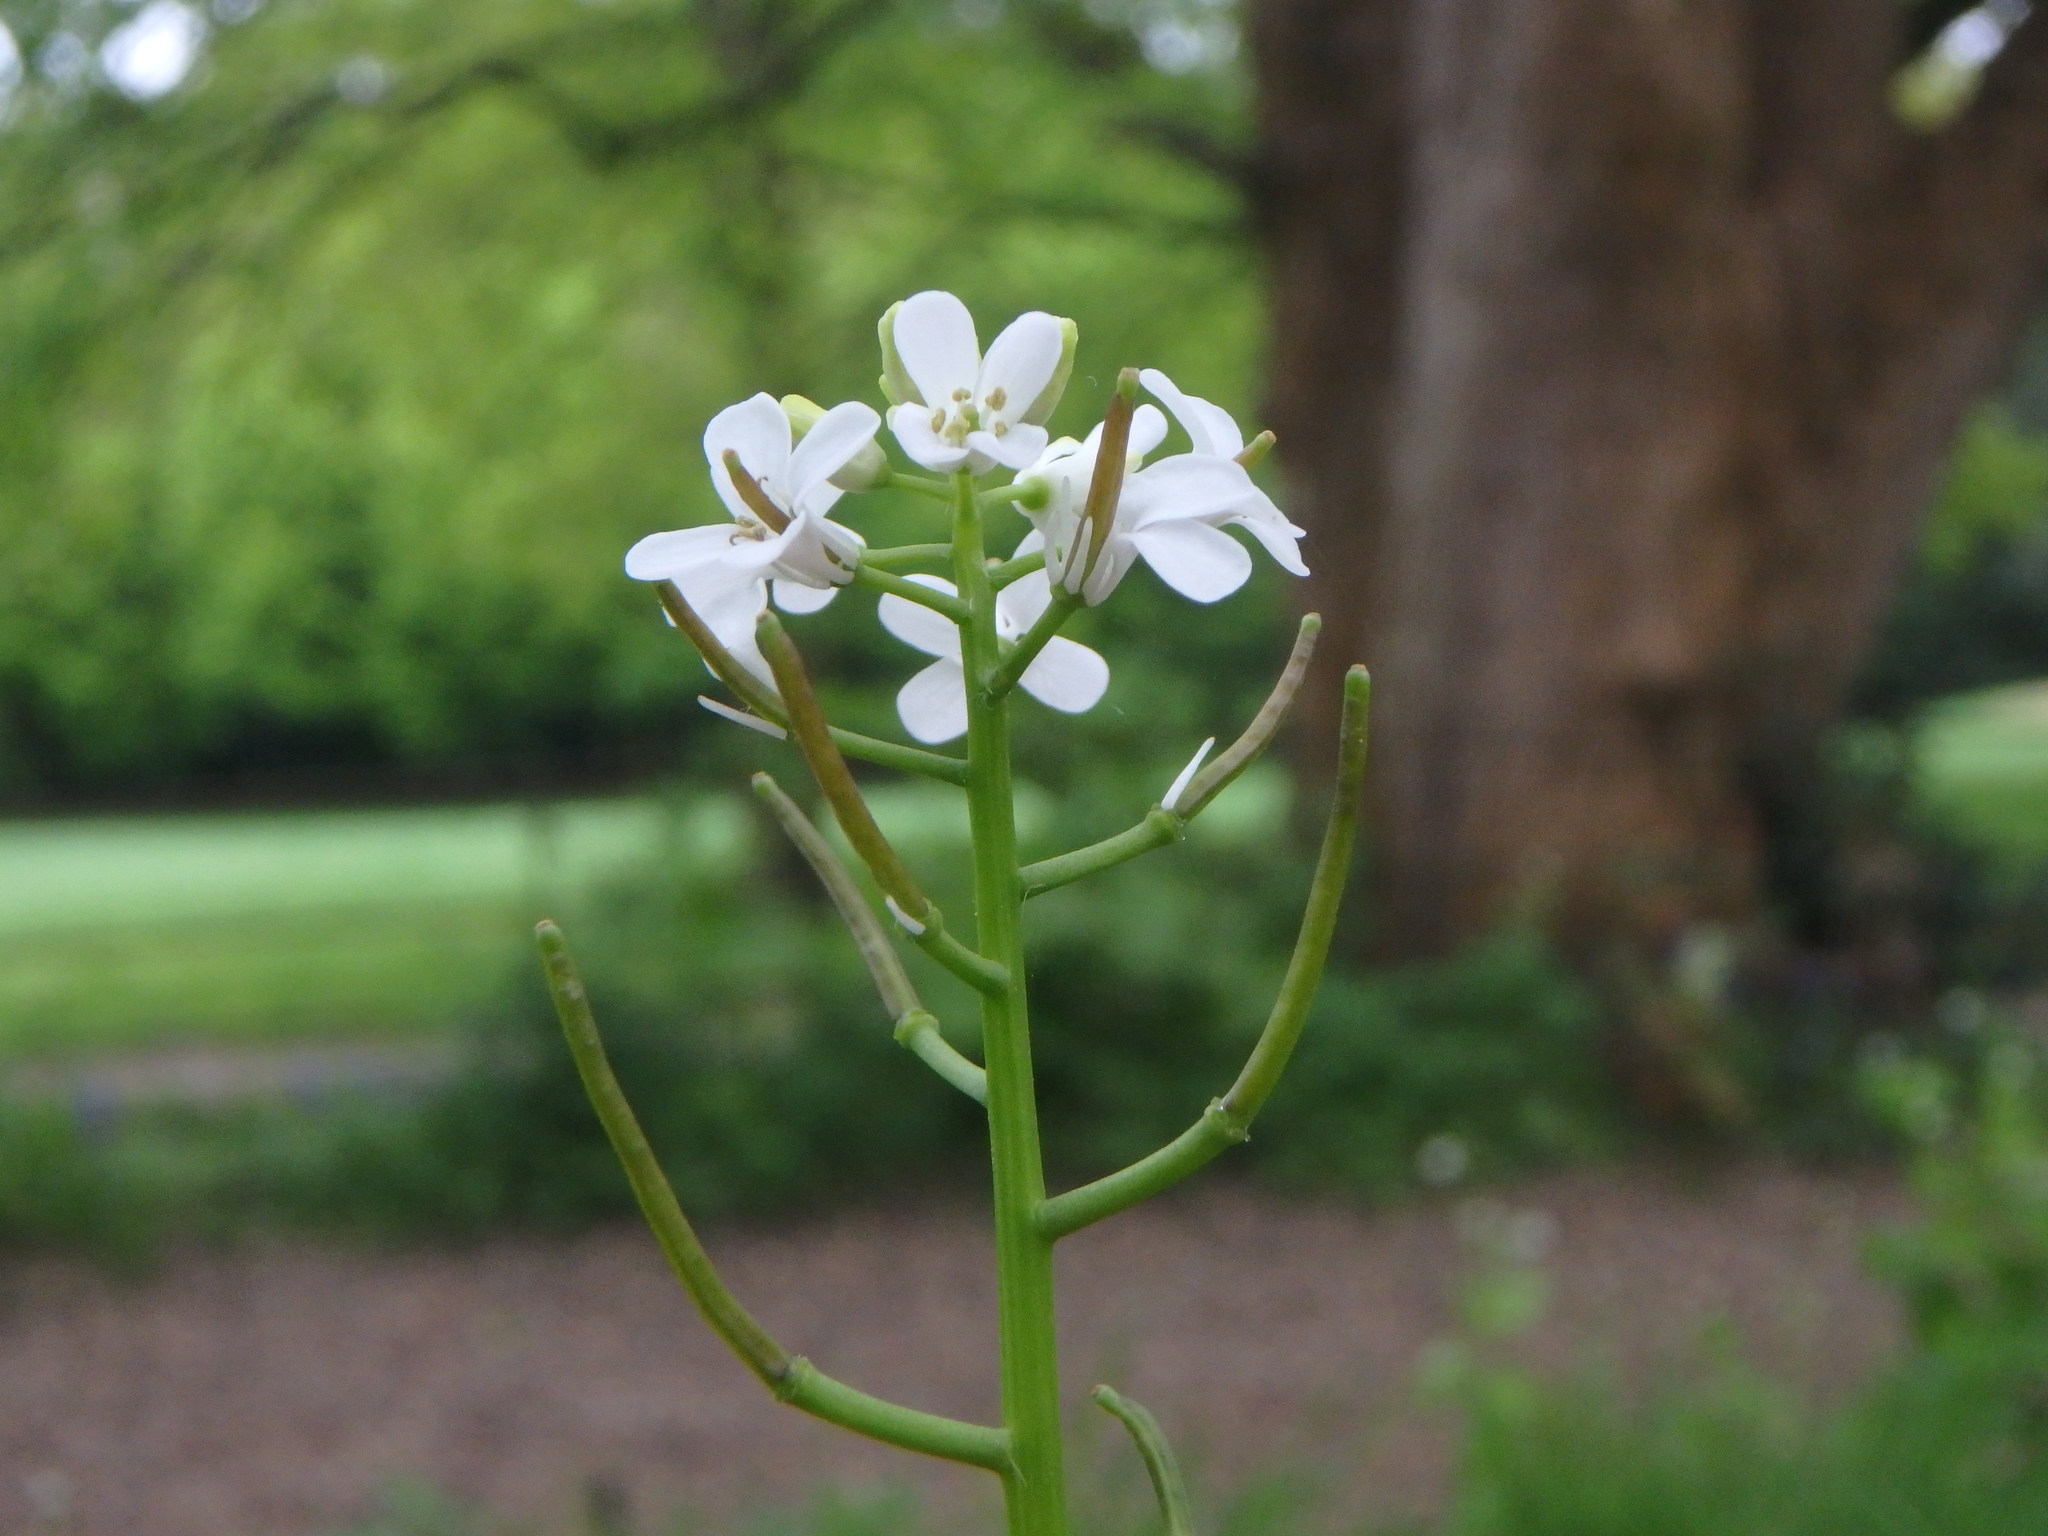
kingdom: Plantae
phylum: Tracheophyta
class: Magnoliopsida
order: Brassicales
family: Brassicaceae
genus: Alliaria
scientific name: Alliaria petiolata
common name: Garlic mustard
